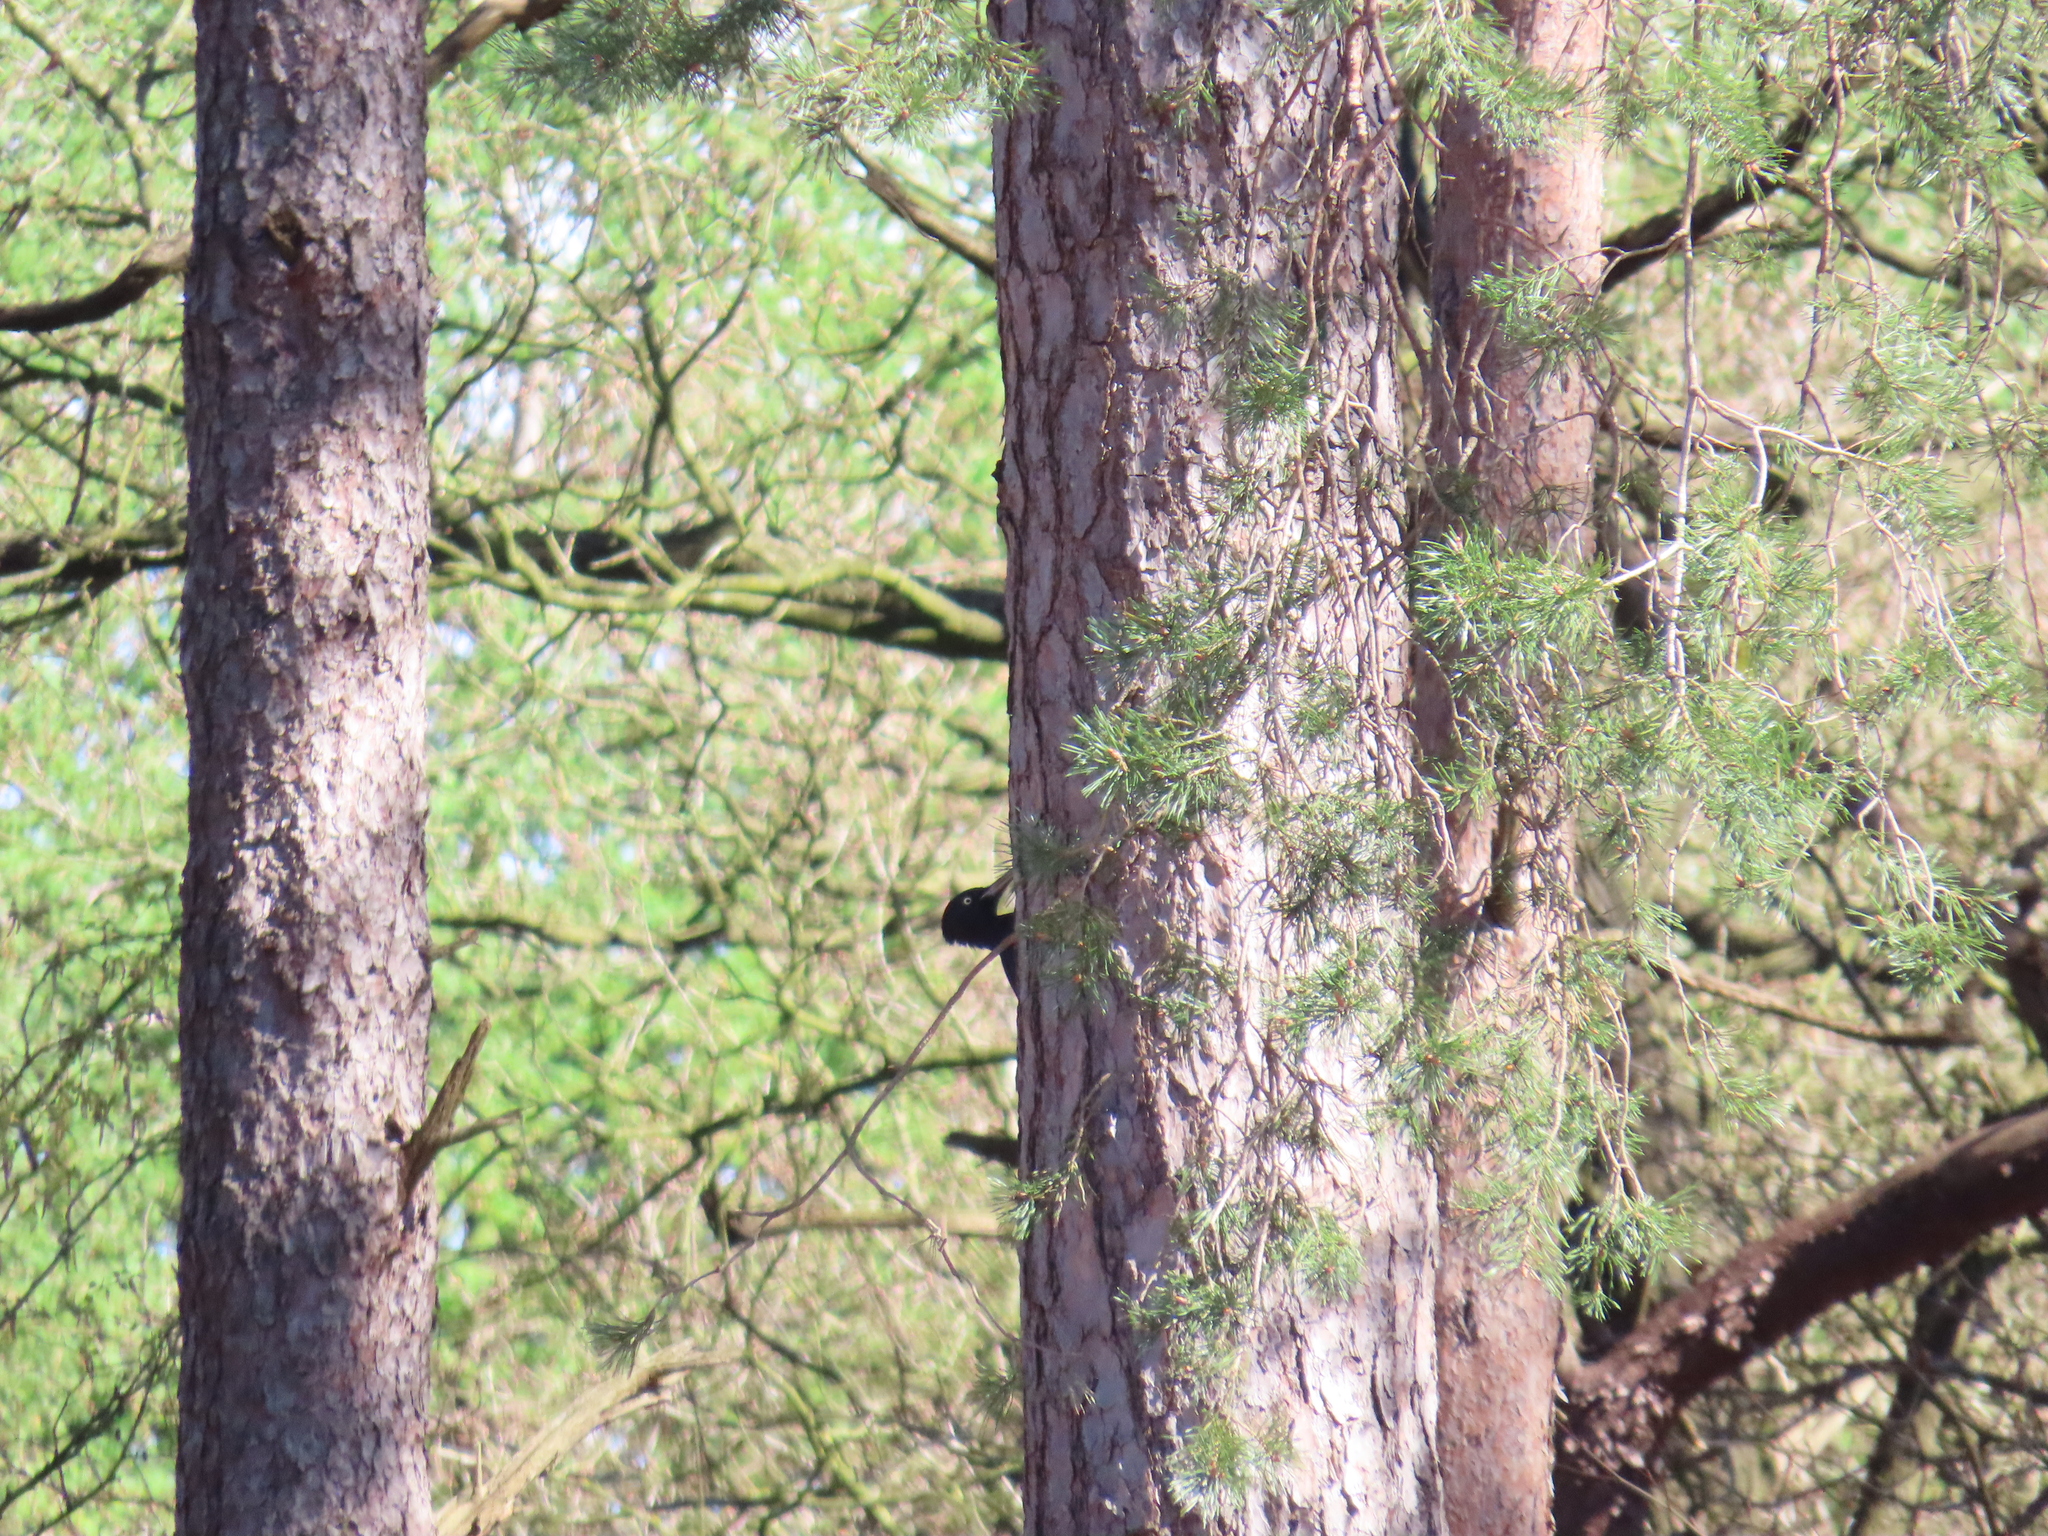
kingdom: Animalia
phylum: Chordata
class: Aves
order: Piciformes
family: Picidae
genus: Dryocopus
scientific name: Dryocopus martius
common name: Black woodpecker
